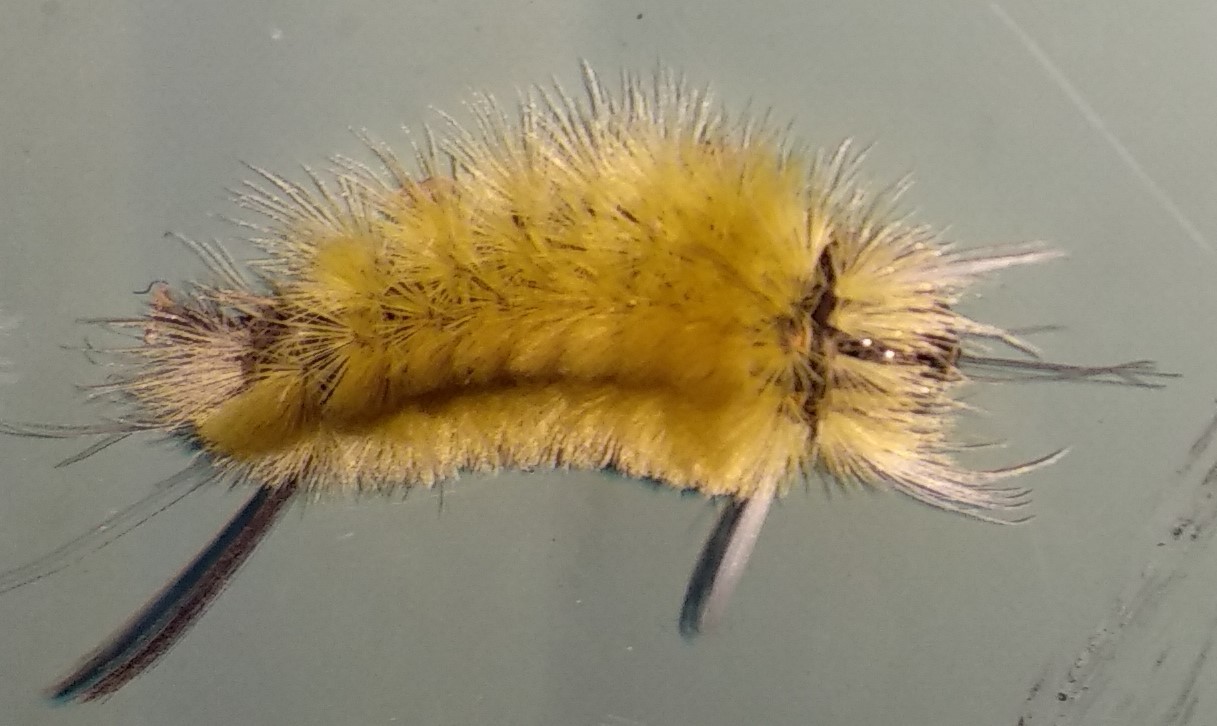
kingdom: Animalia
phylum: Arthropoda
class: Insecta
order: Lepidoptera
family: Erebidae
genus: Halysidota
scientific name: Halysidota tessellaris
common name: Banded tussock moth
